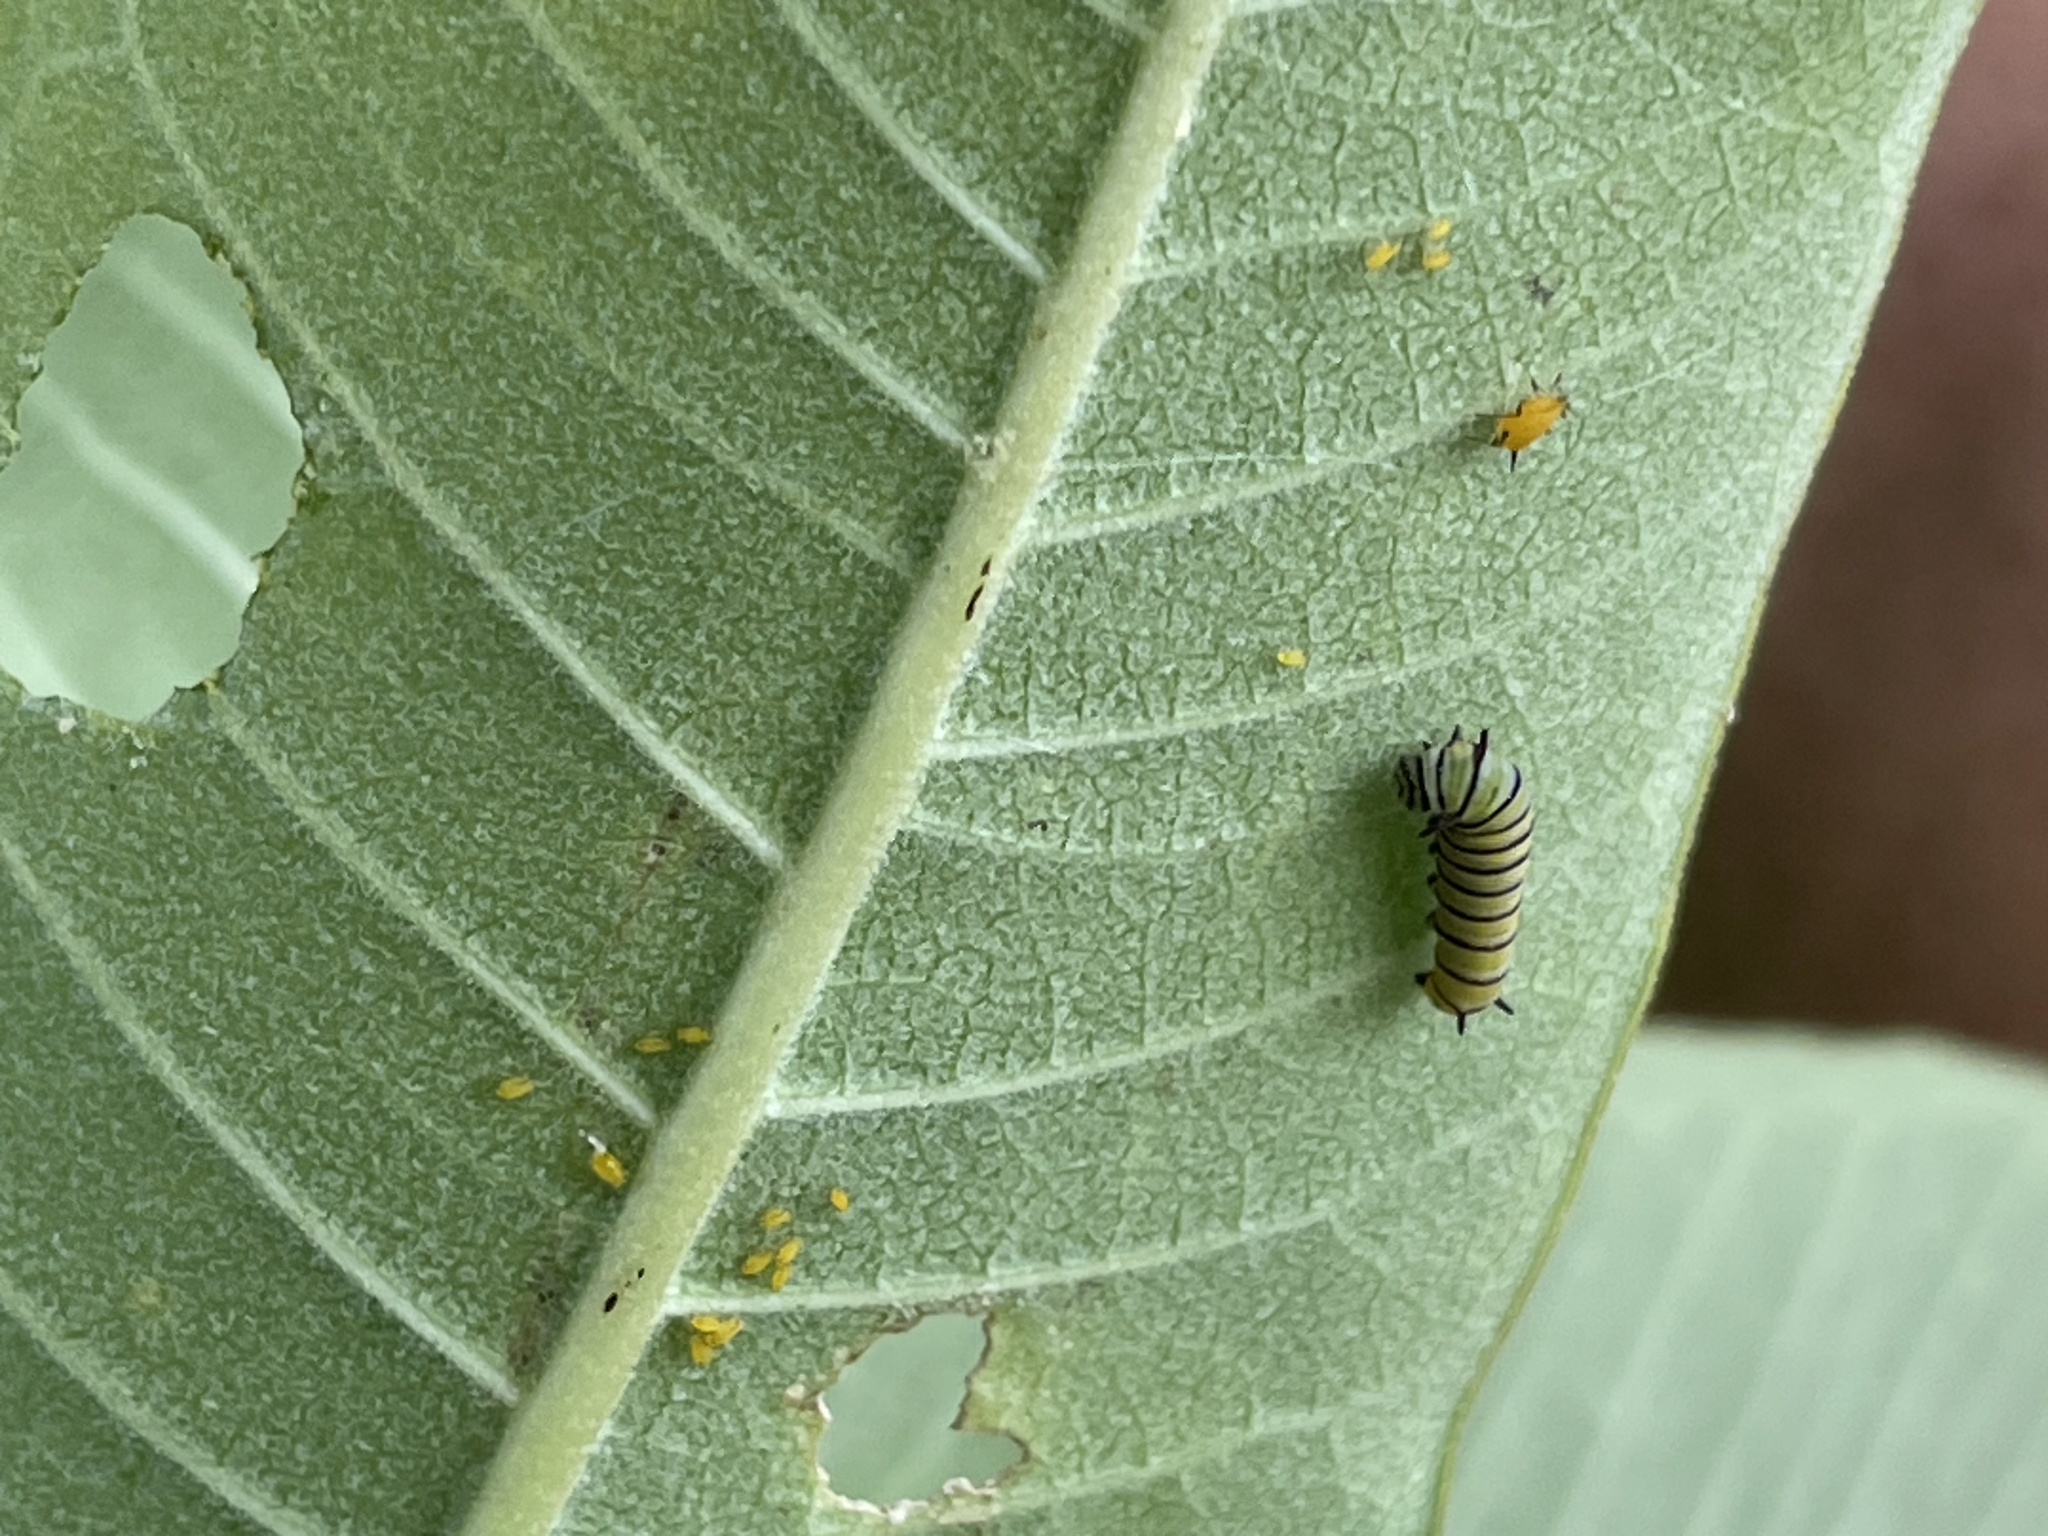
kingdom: Animalia
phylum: Arthropoda
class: Insecta
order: Lepidoptera
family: Nymphalidae
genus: Danaus
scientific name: Danaus plexippus
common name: Monarch
